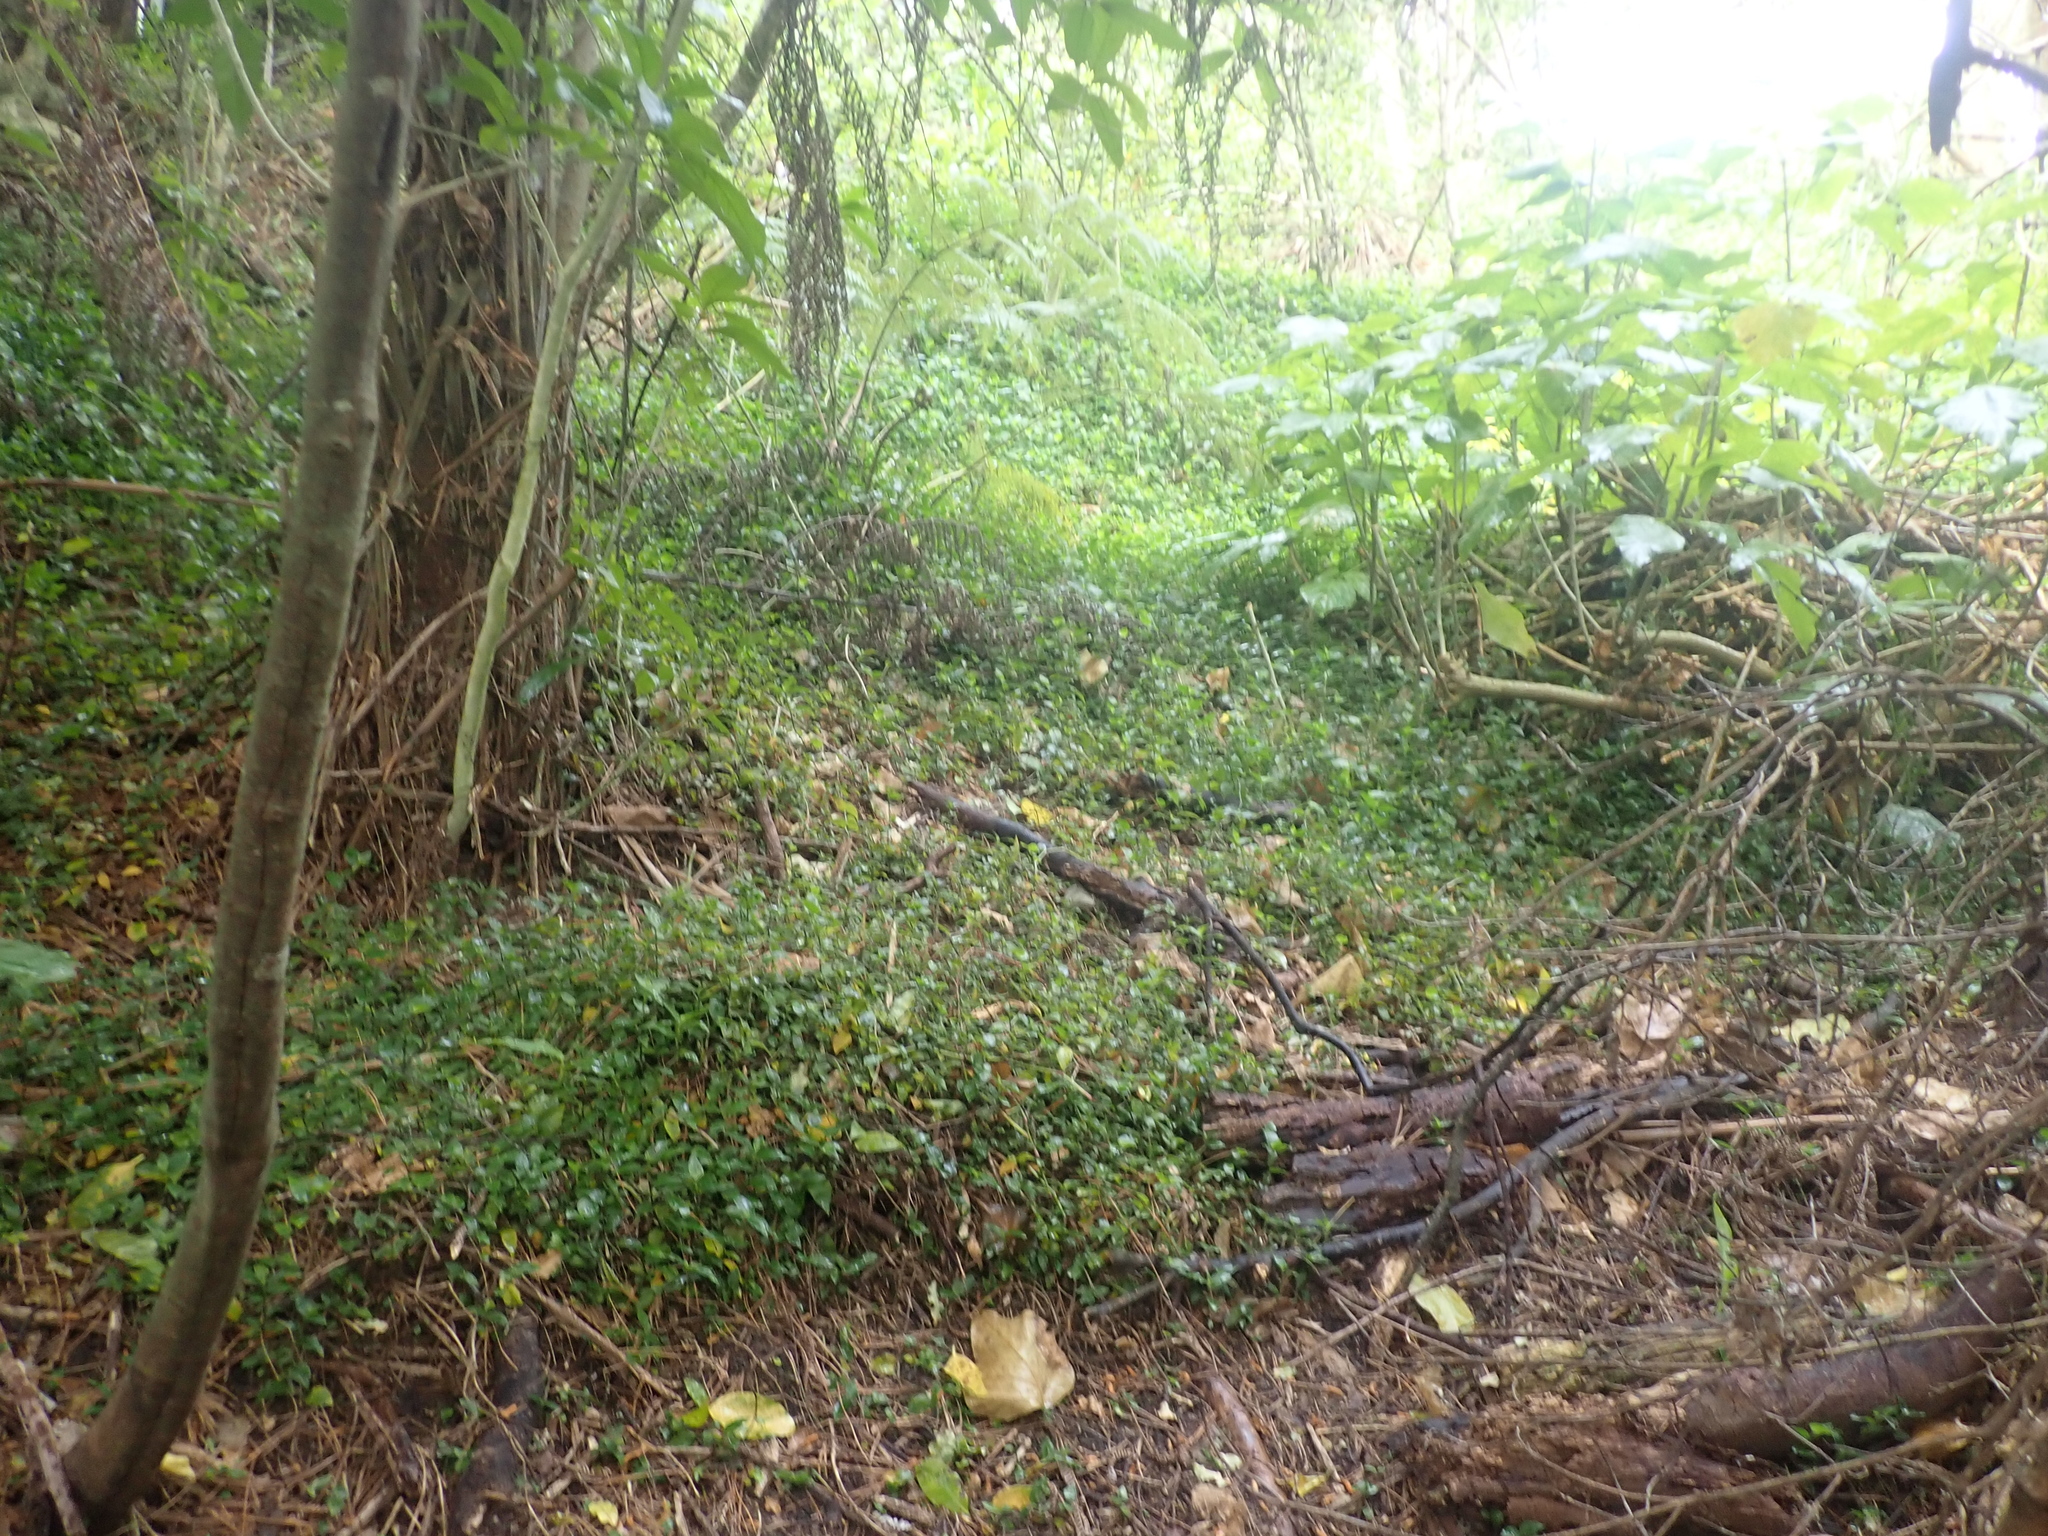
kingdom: Plantae
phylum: Tracheophyta
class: Liliopsida
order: Commelinales
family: Commelinaceae
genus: Tradescantia
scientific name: Tradescantia fluminensis
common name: Wandering-jew
